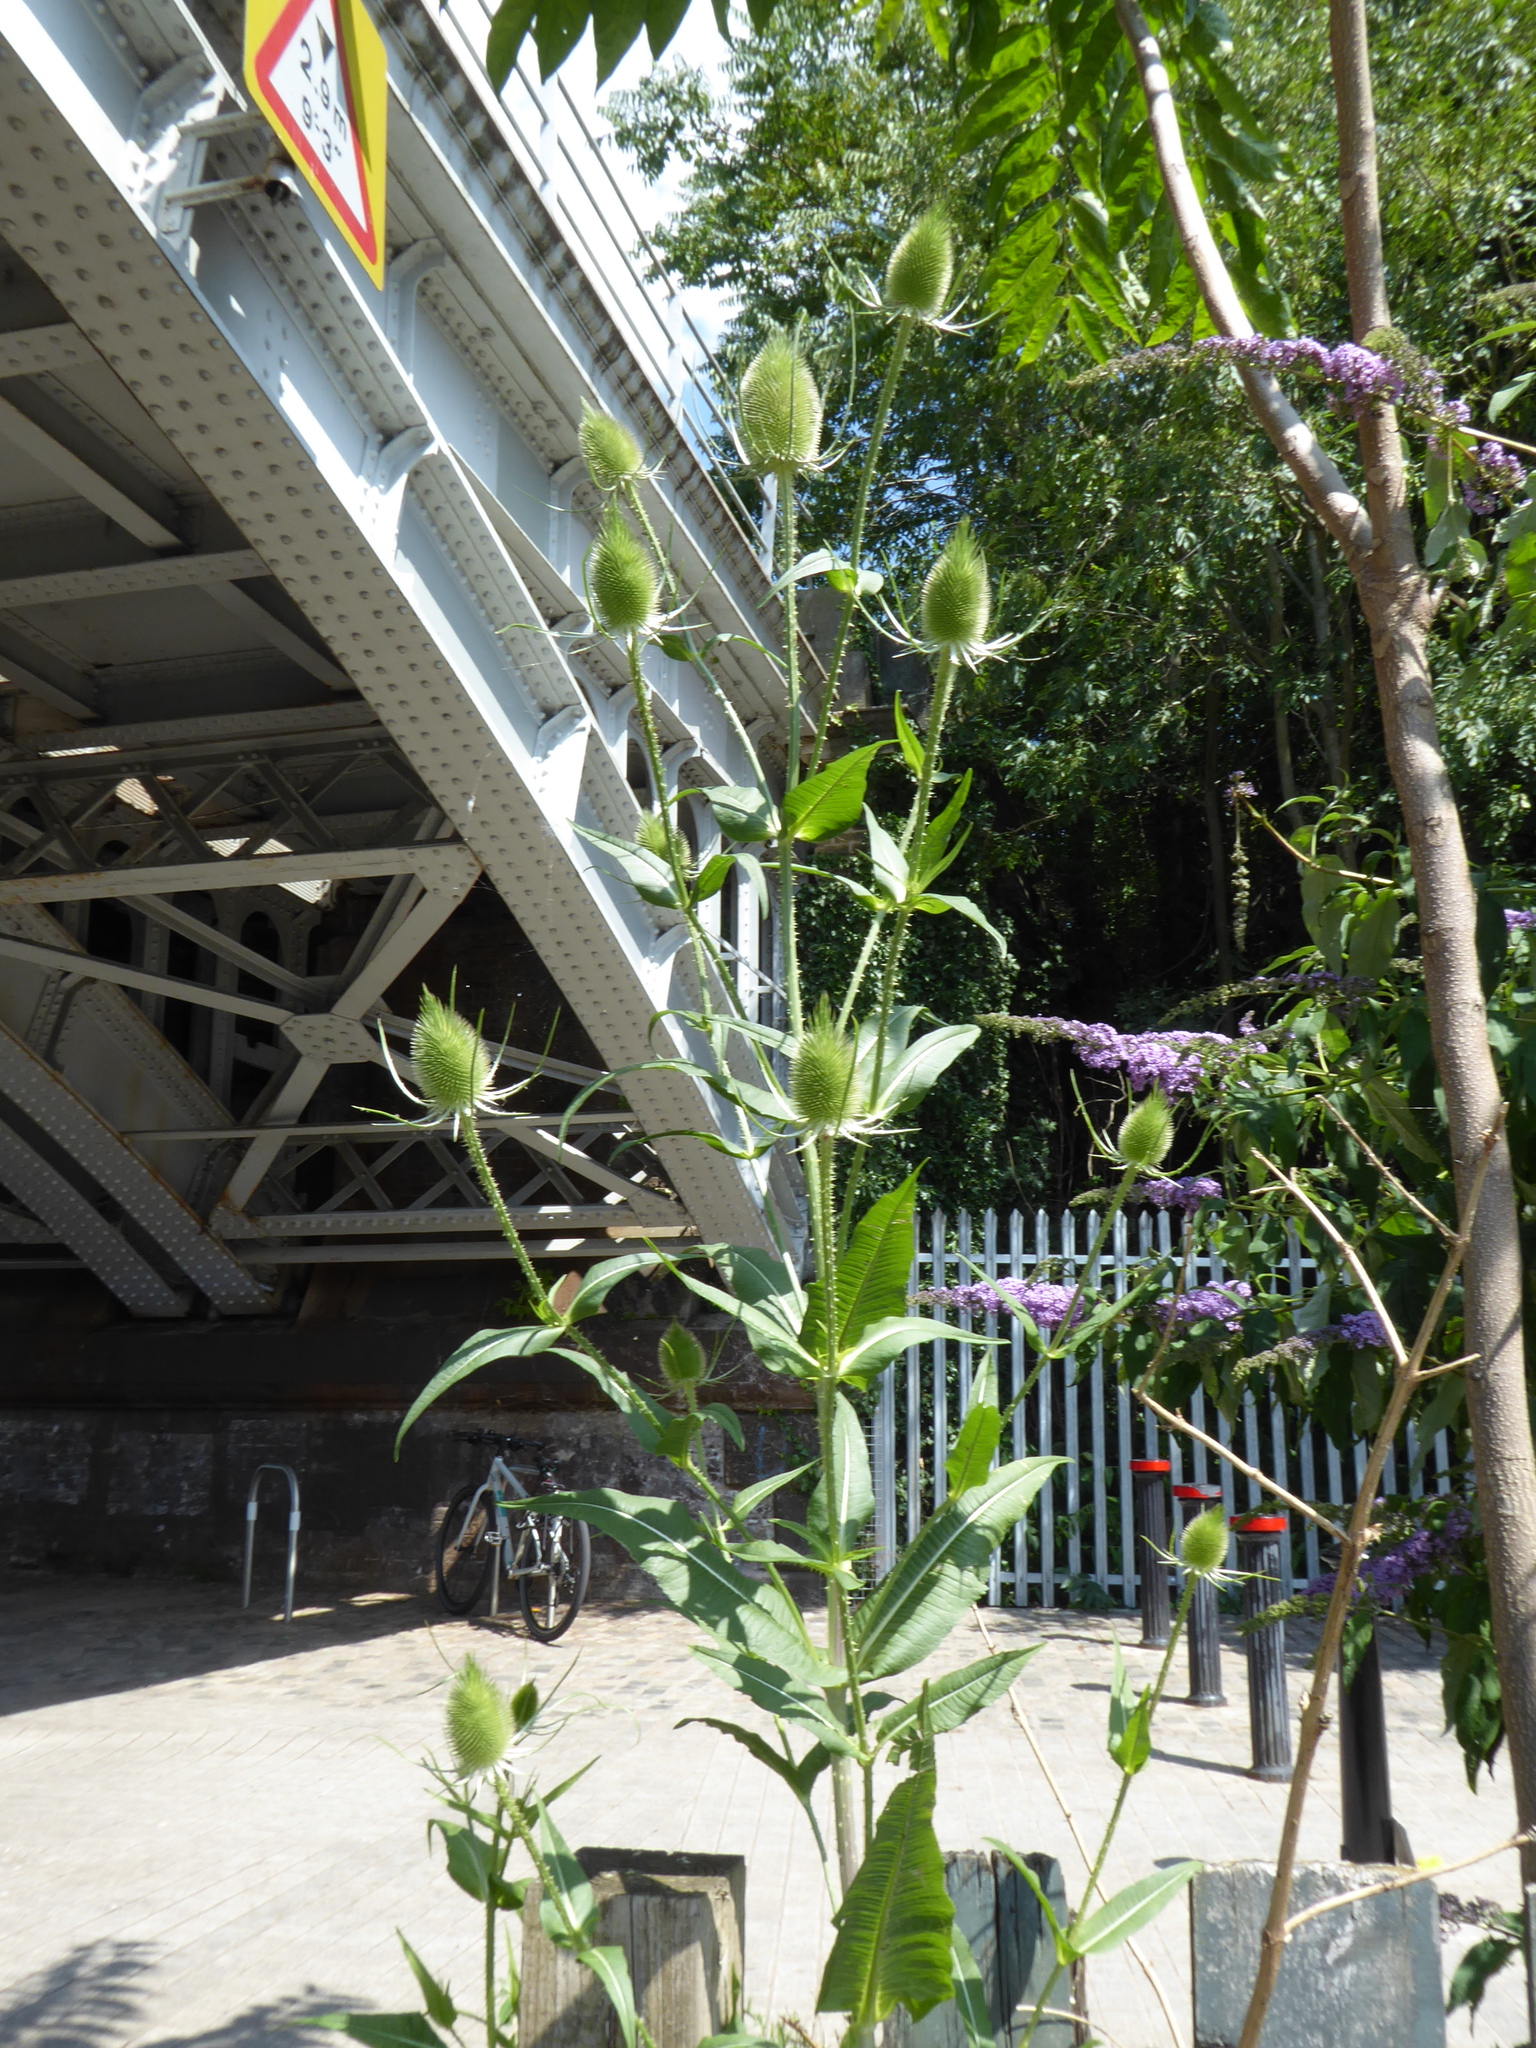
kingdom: Plantae
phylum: Tracheophyta
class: Magnoliopsida
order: Dipsacales
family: Caprifoliaceae
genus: Dipsacus
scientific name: Dipsacus fullonum
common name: Teasel
